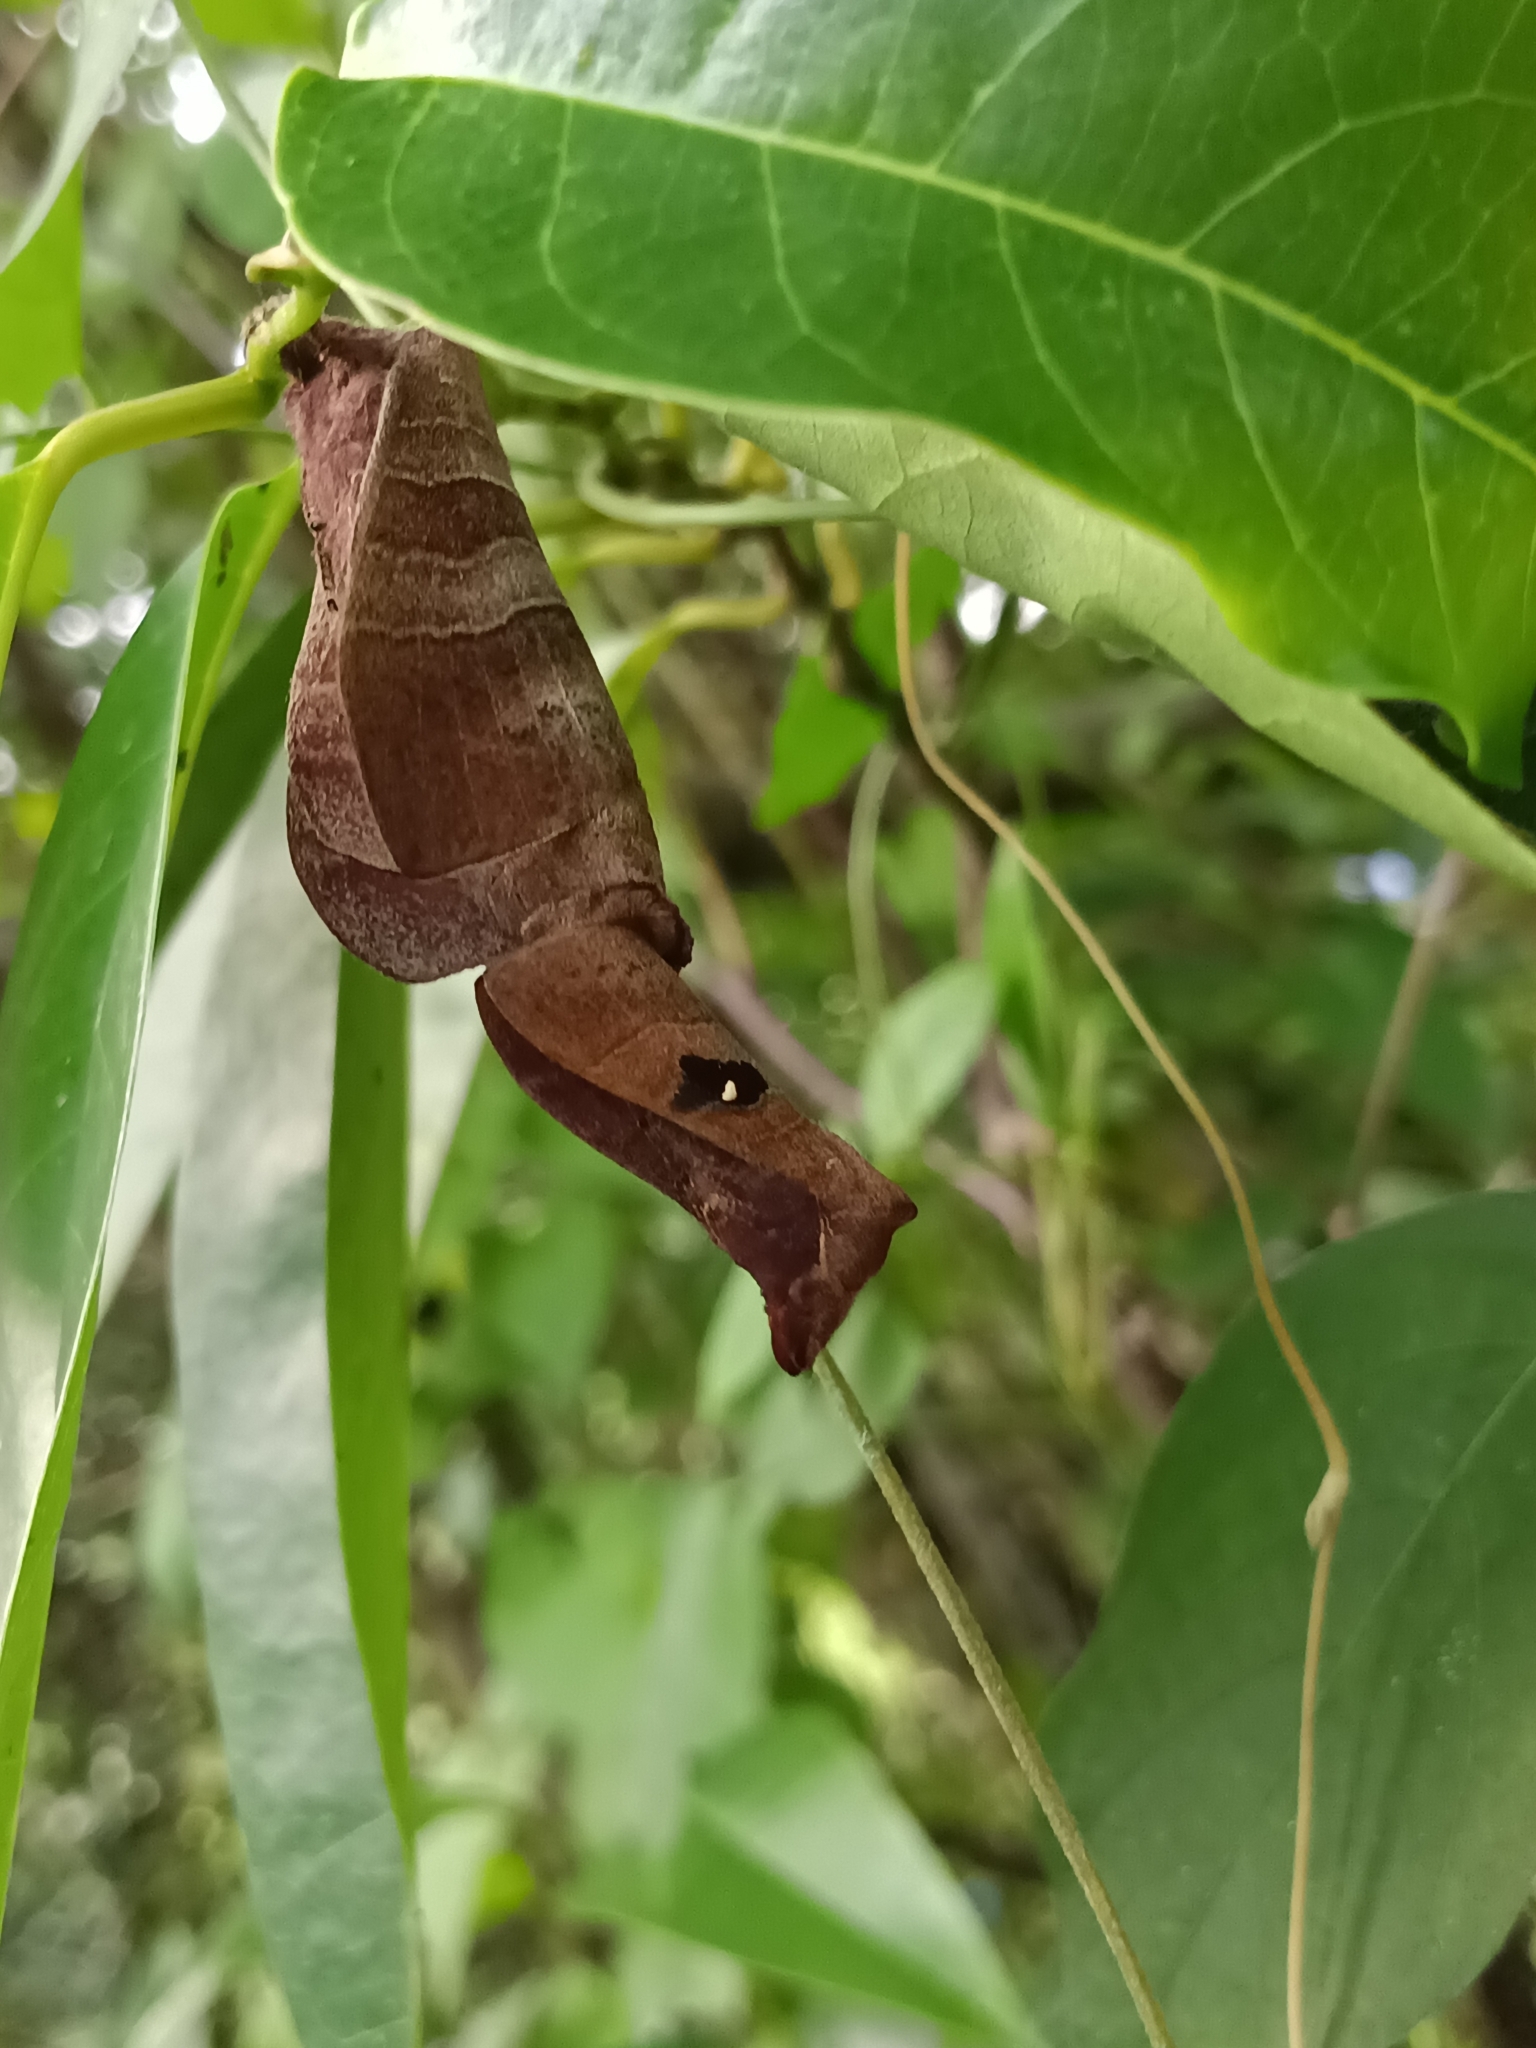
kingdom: Animalia
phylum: Arthropoda
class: Insecta
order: Lepidoptera
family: Lasiocampidae
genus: Metanastria
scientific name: Metanastria hyrtaca
